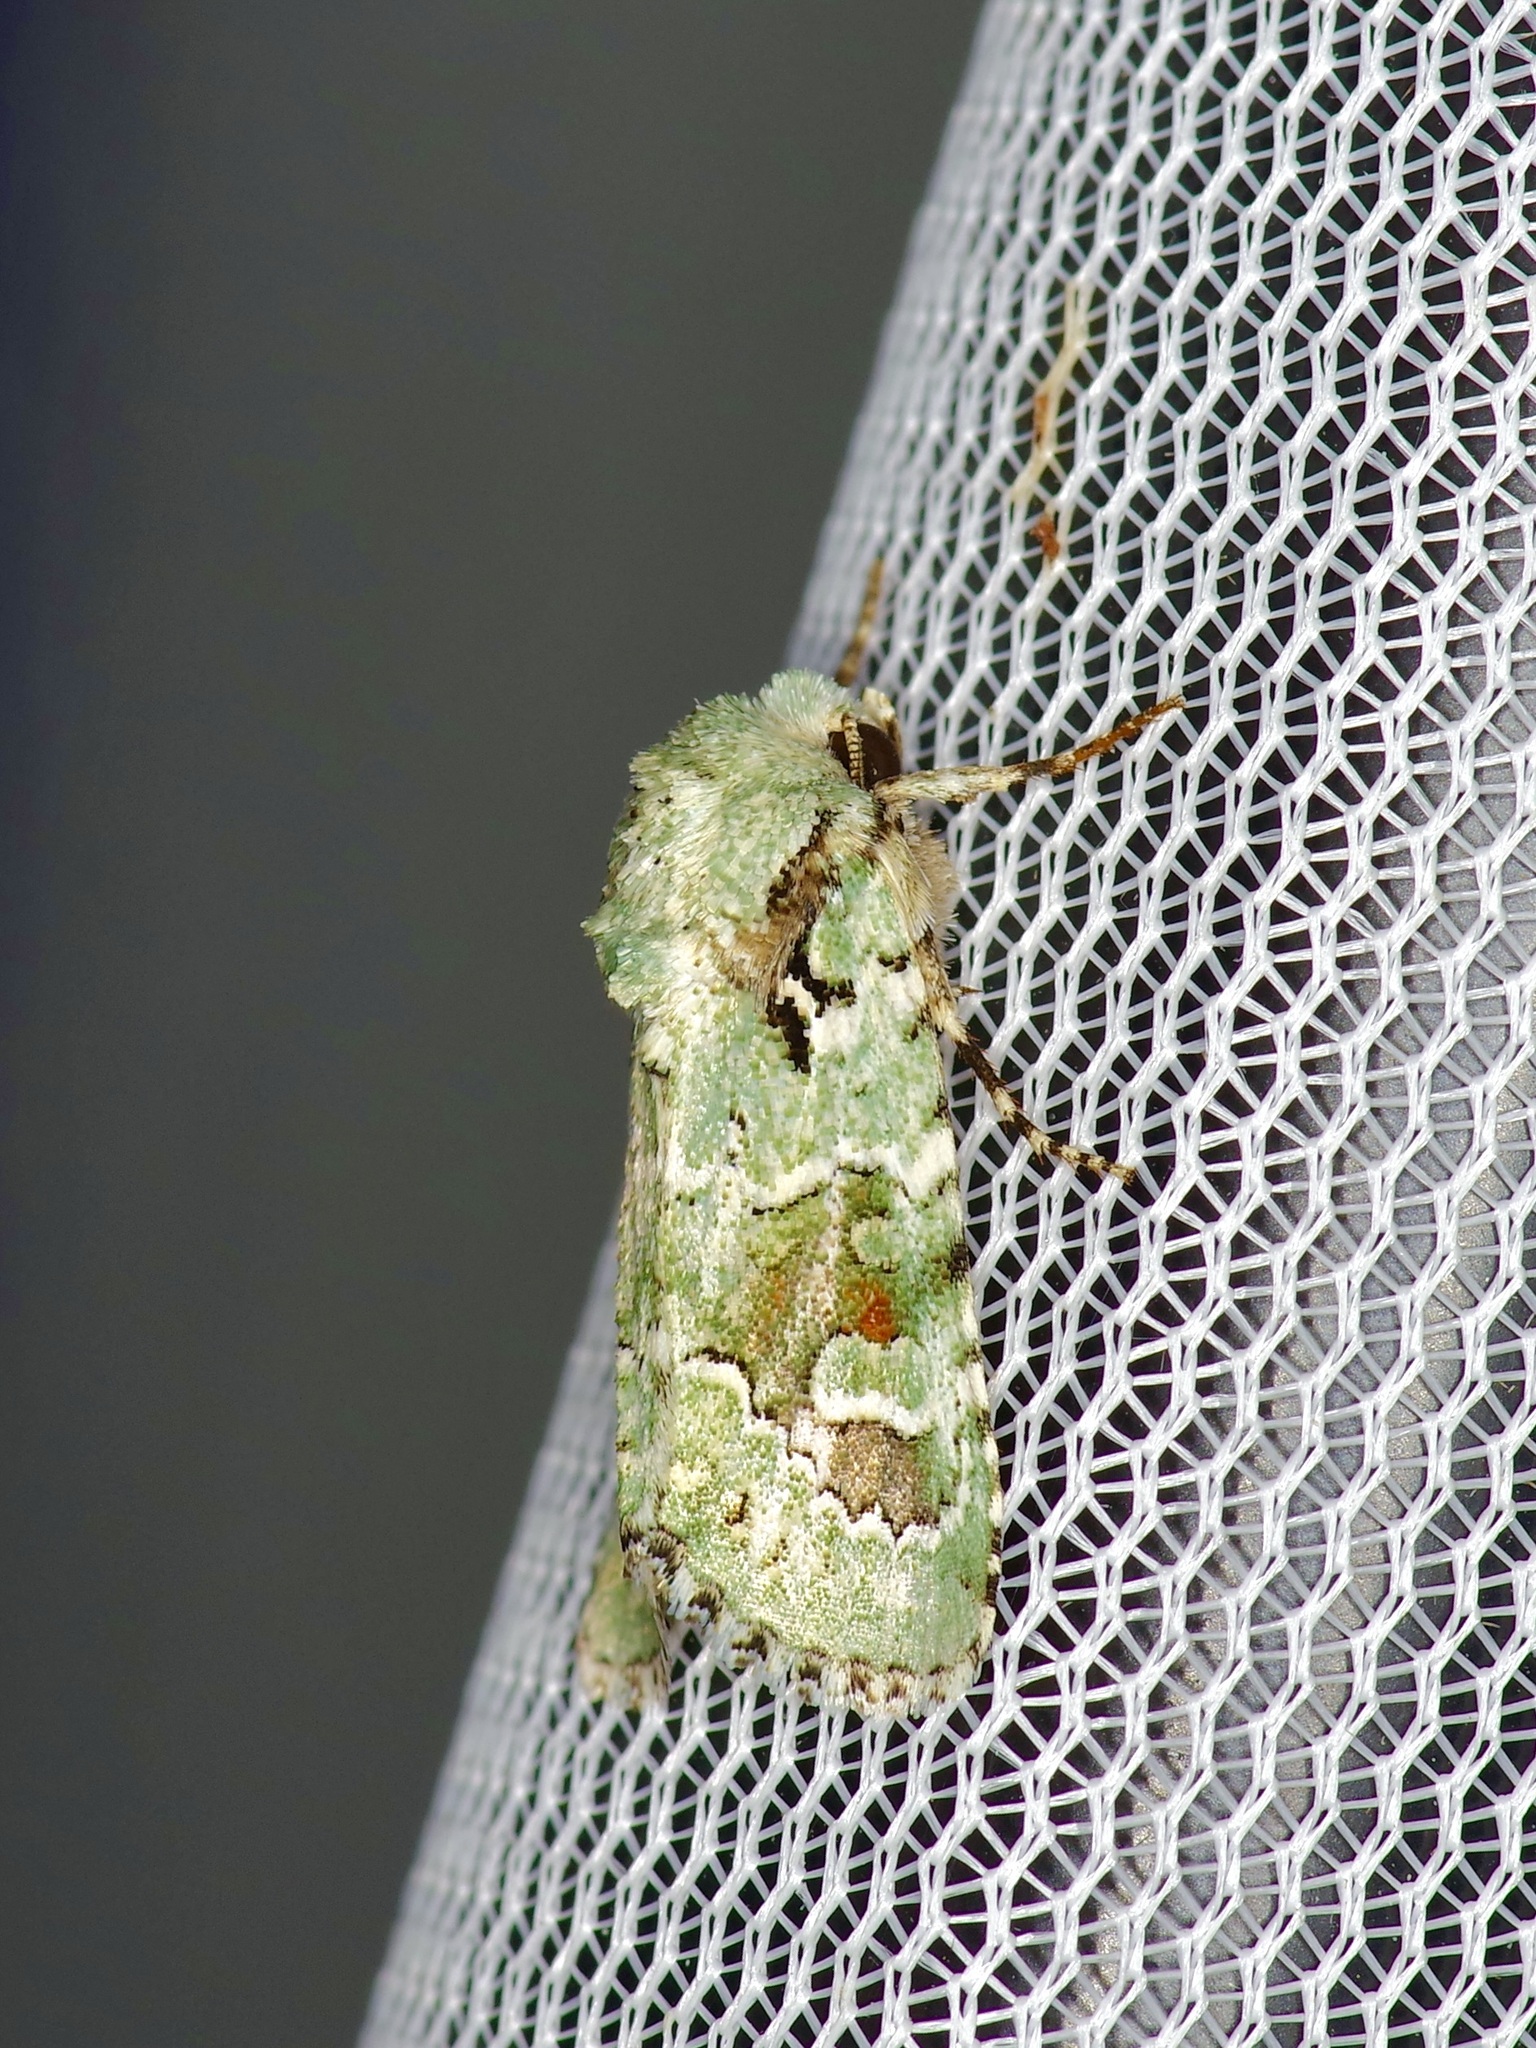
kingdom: Animalia
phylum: Arthropoda
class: Insecta
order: Lepidoptera
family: Noctuidae
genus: Lacinipolia
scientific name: Lacinipolia laudabilis
